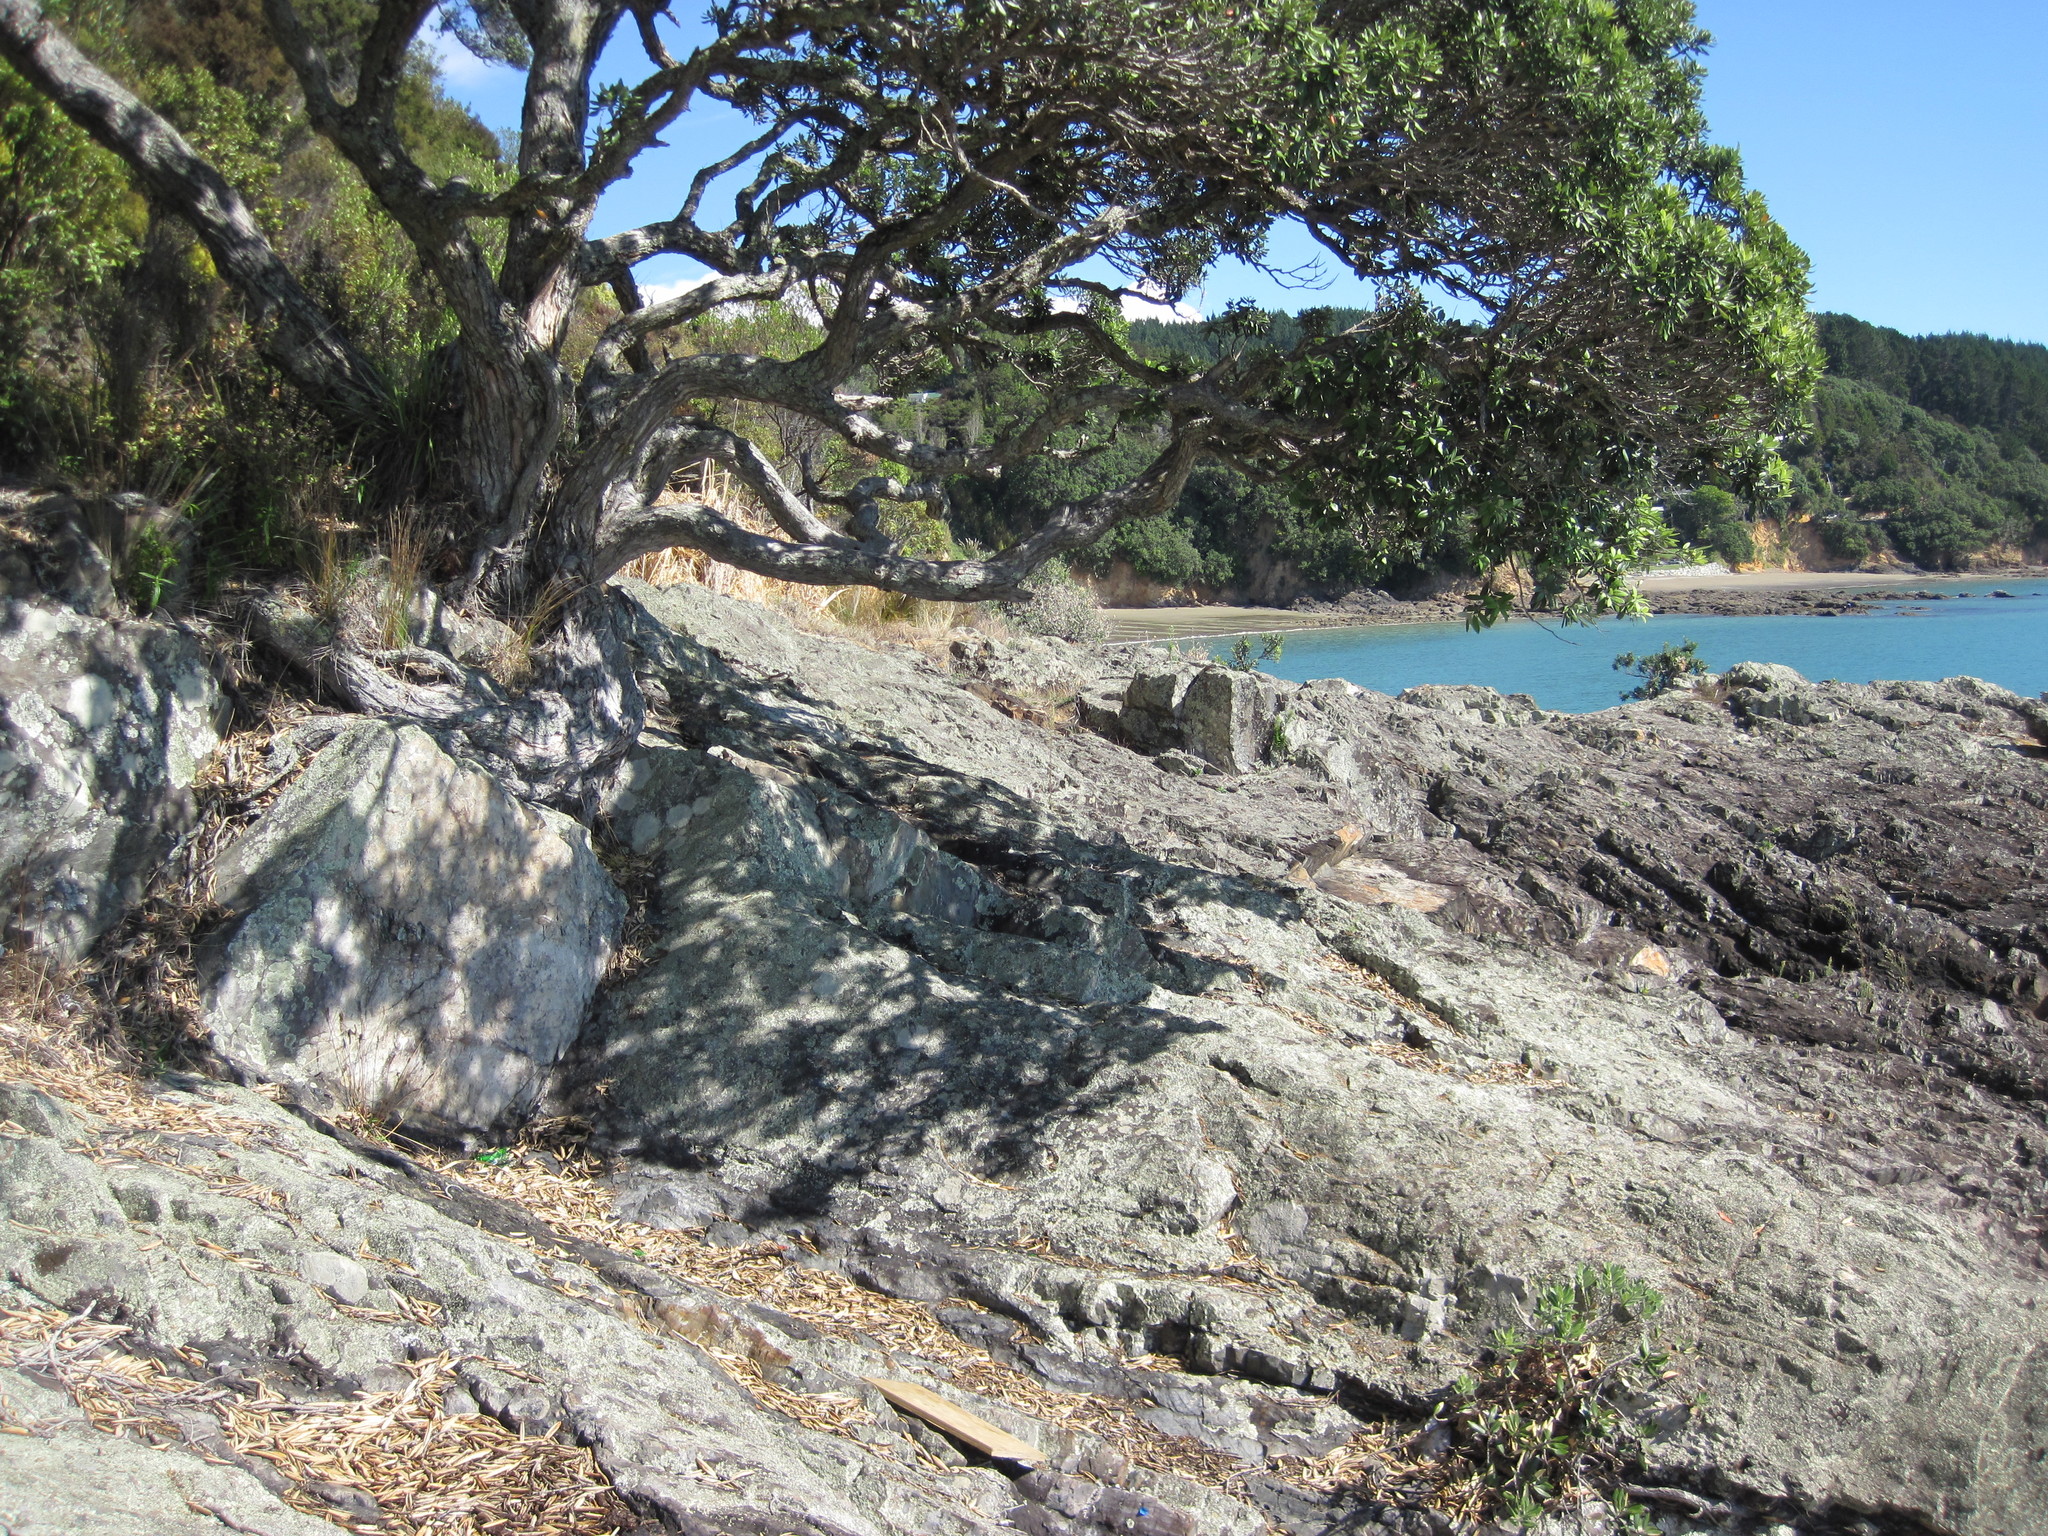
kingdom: Plantae
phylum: Tracheophyta
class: Magnoliopsida
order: Myrtales
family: Myrtaceae
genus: Metrosideros
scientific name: Metrosideros excelsa
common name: New zealand christmastree
